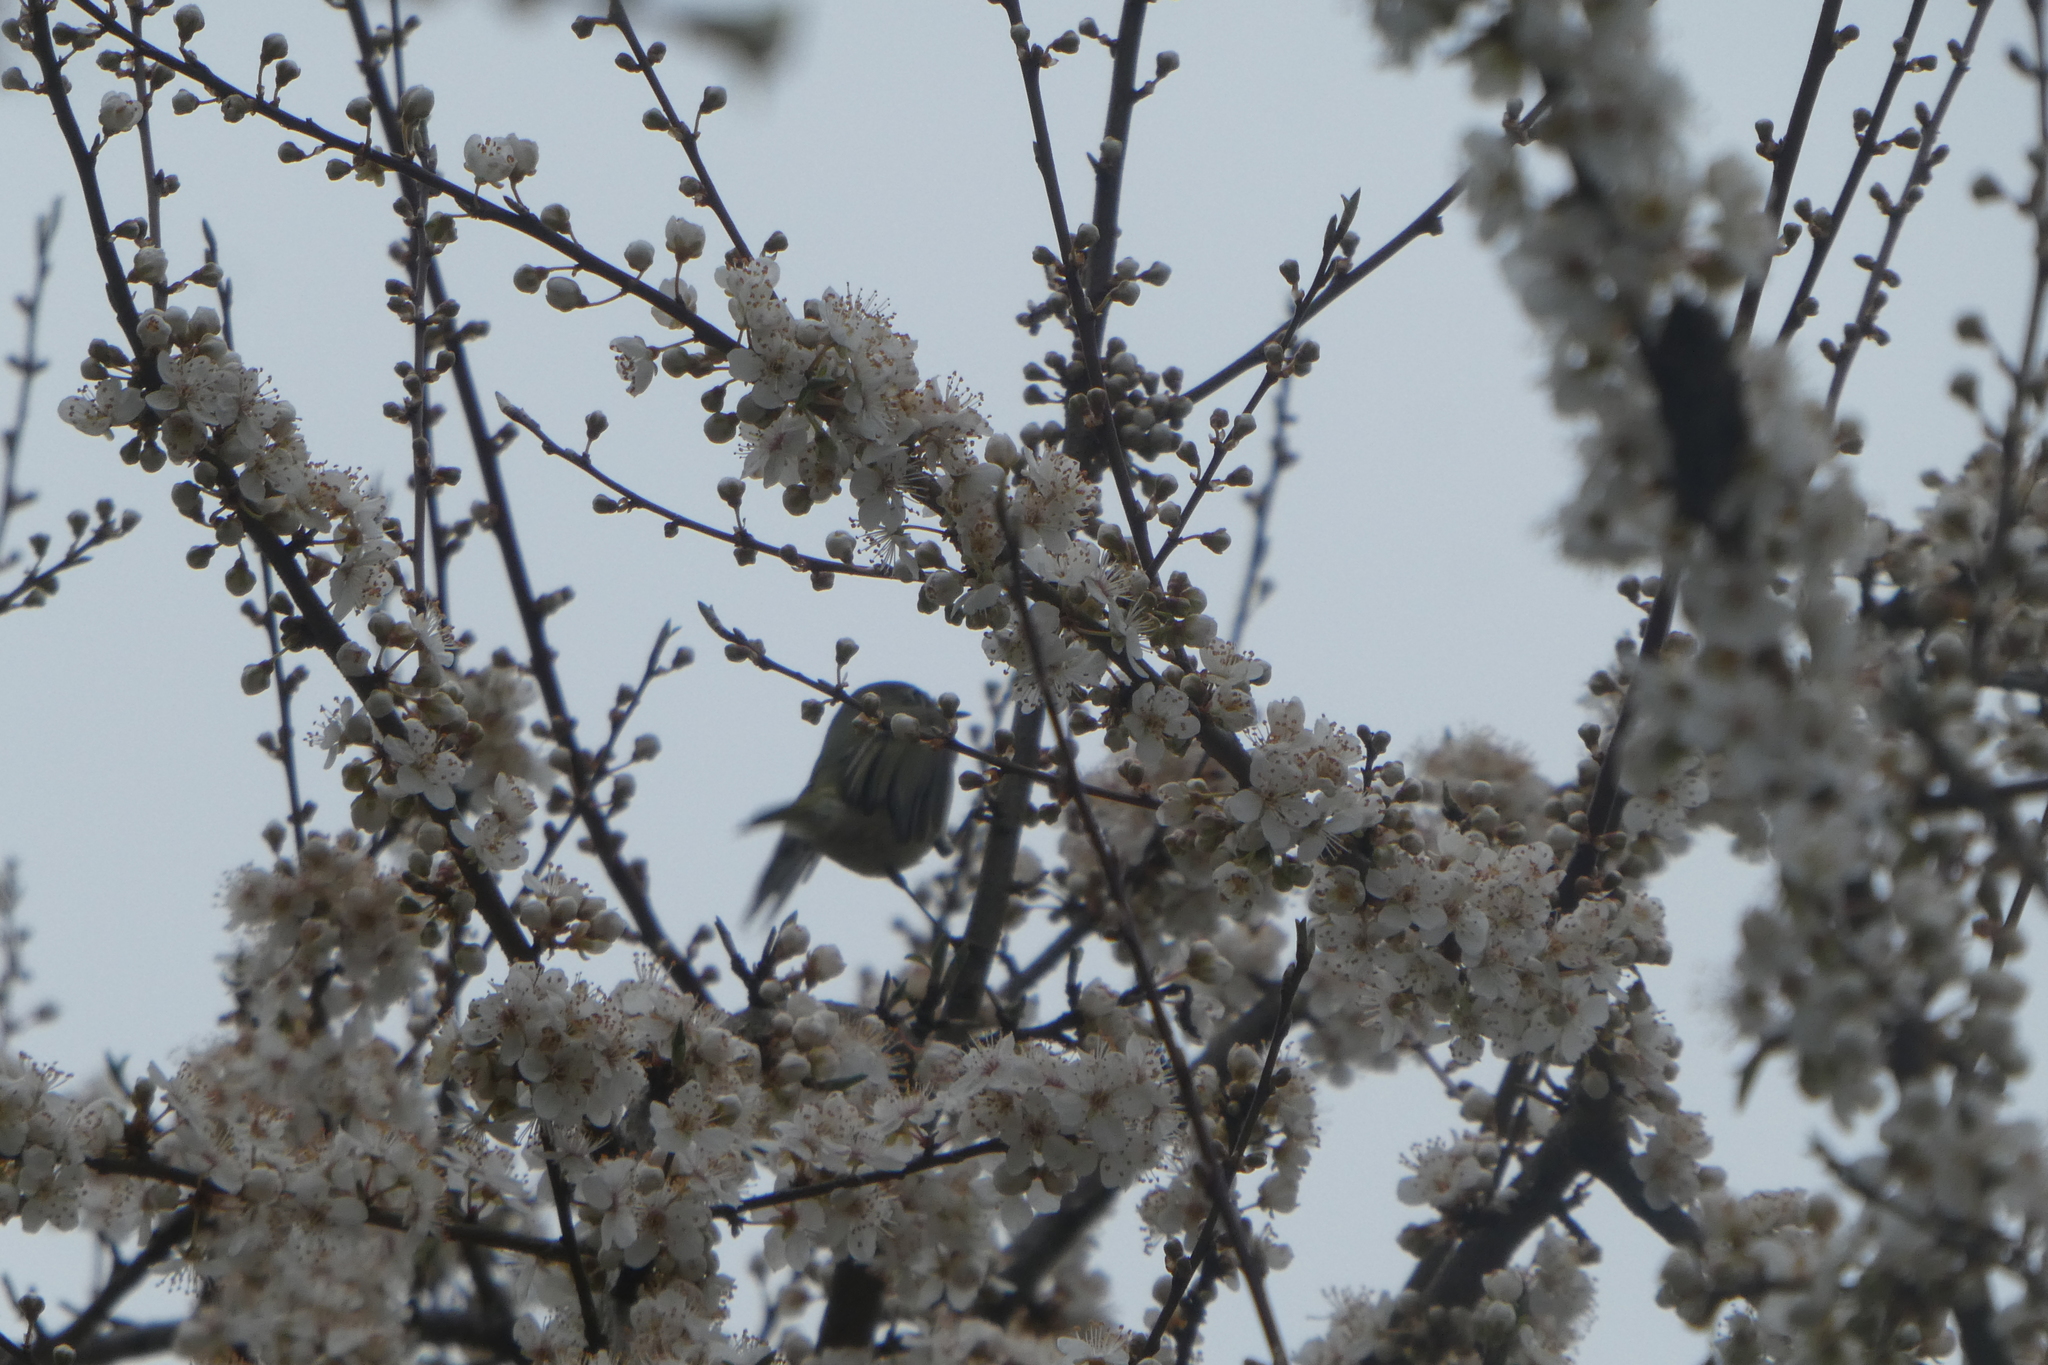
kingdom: Animalia
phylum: Chordata
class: Aves
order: Passeriformes
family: Regulidae
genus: Regulus
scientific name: Regulus calendula
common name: Ruby-crowned kinglet
